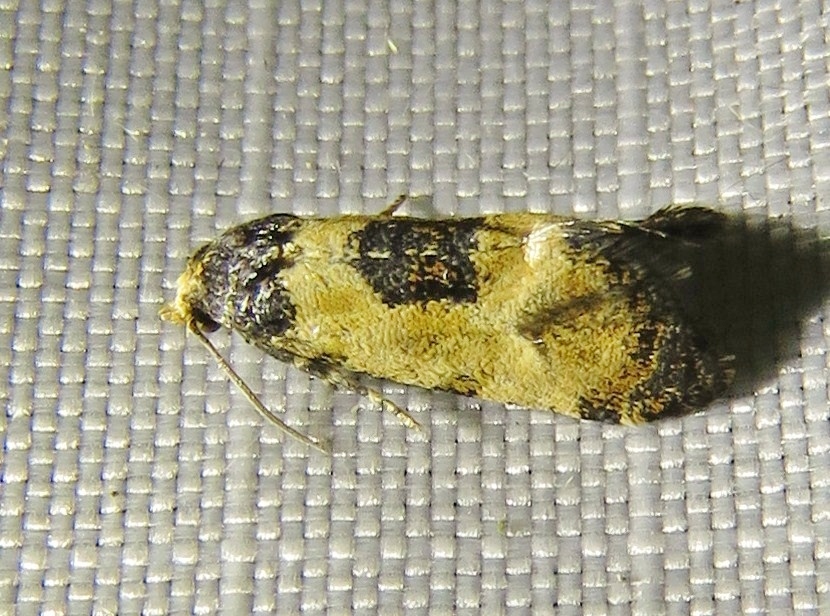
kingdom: Animalia
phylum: Arthropoda
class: Insecta
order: Lepidoptera
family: Tortricidae
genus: Cochylis
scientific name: Cochylis dubitana
